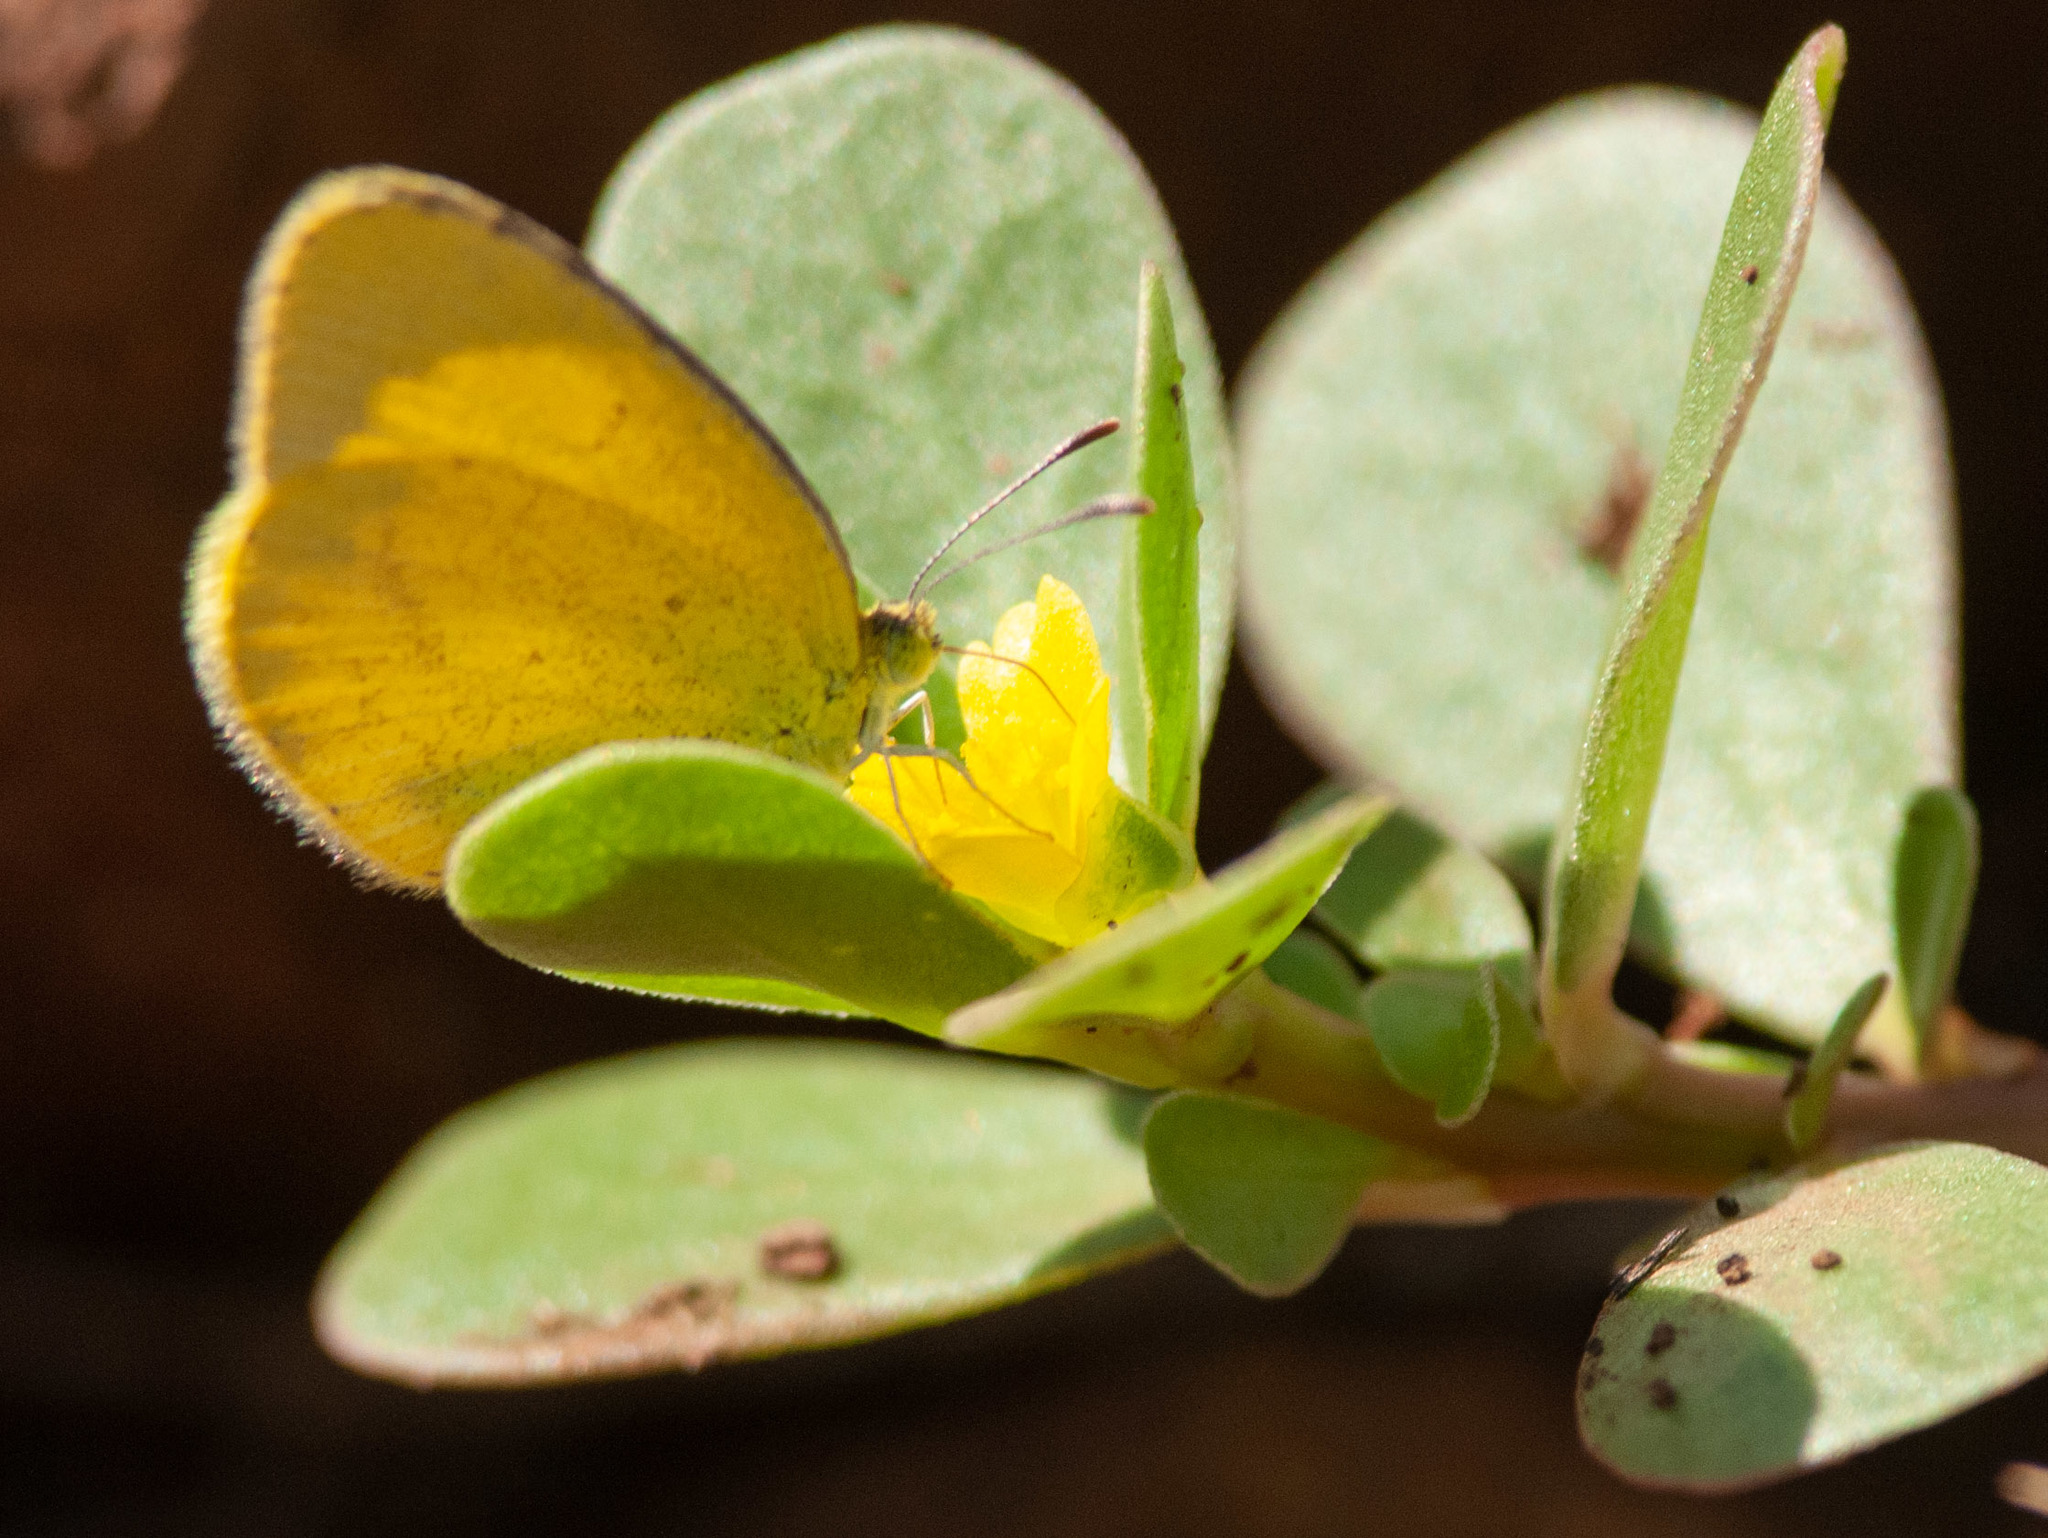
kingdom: Animalia
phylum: Arthropoda
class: Insecta
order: Lepidoptera
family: Pieridae
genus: Eurema
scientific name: Eurema brigitta
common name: Small grass yellow
